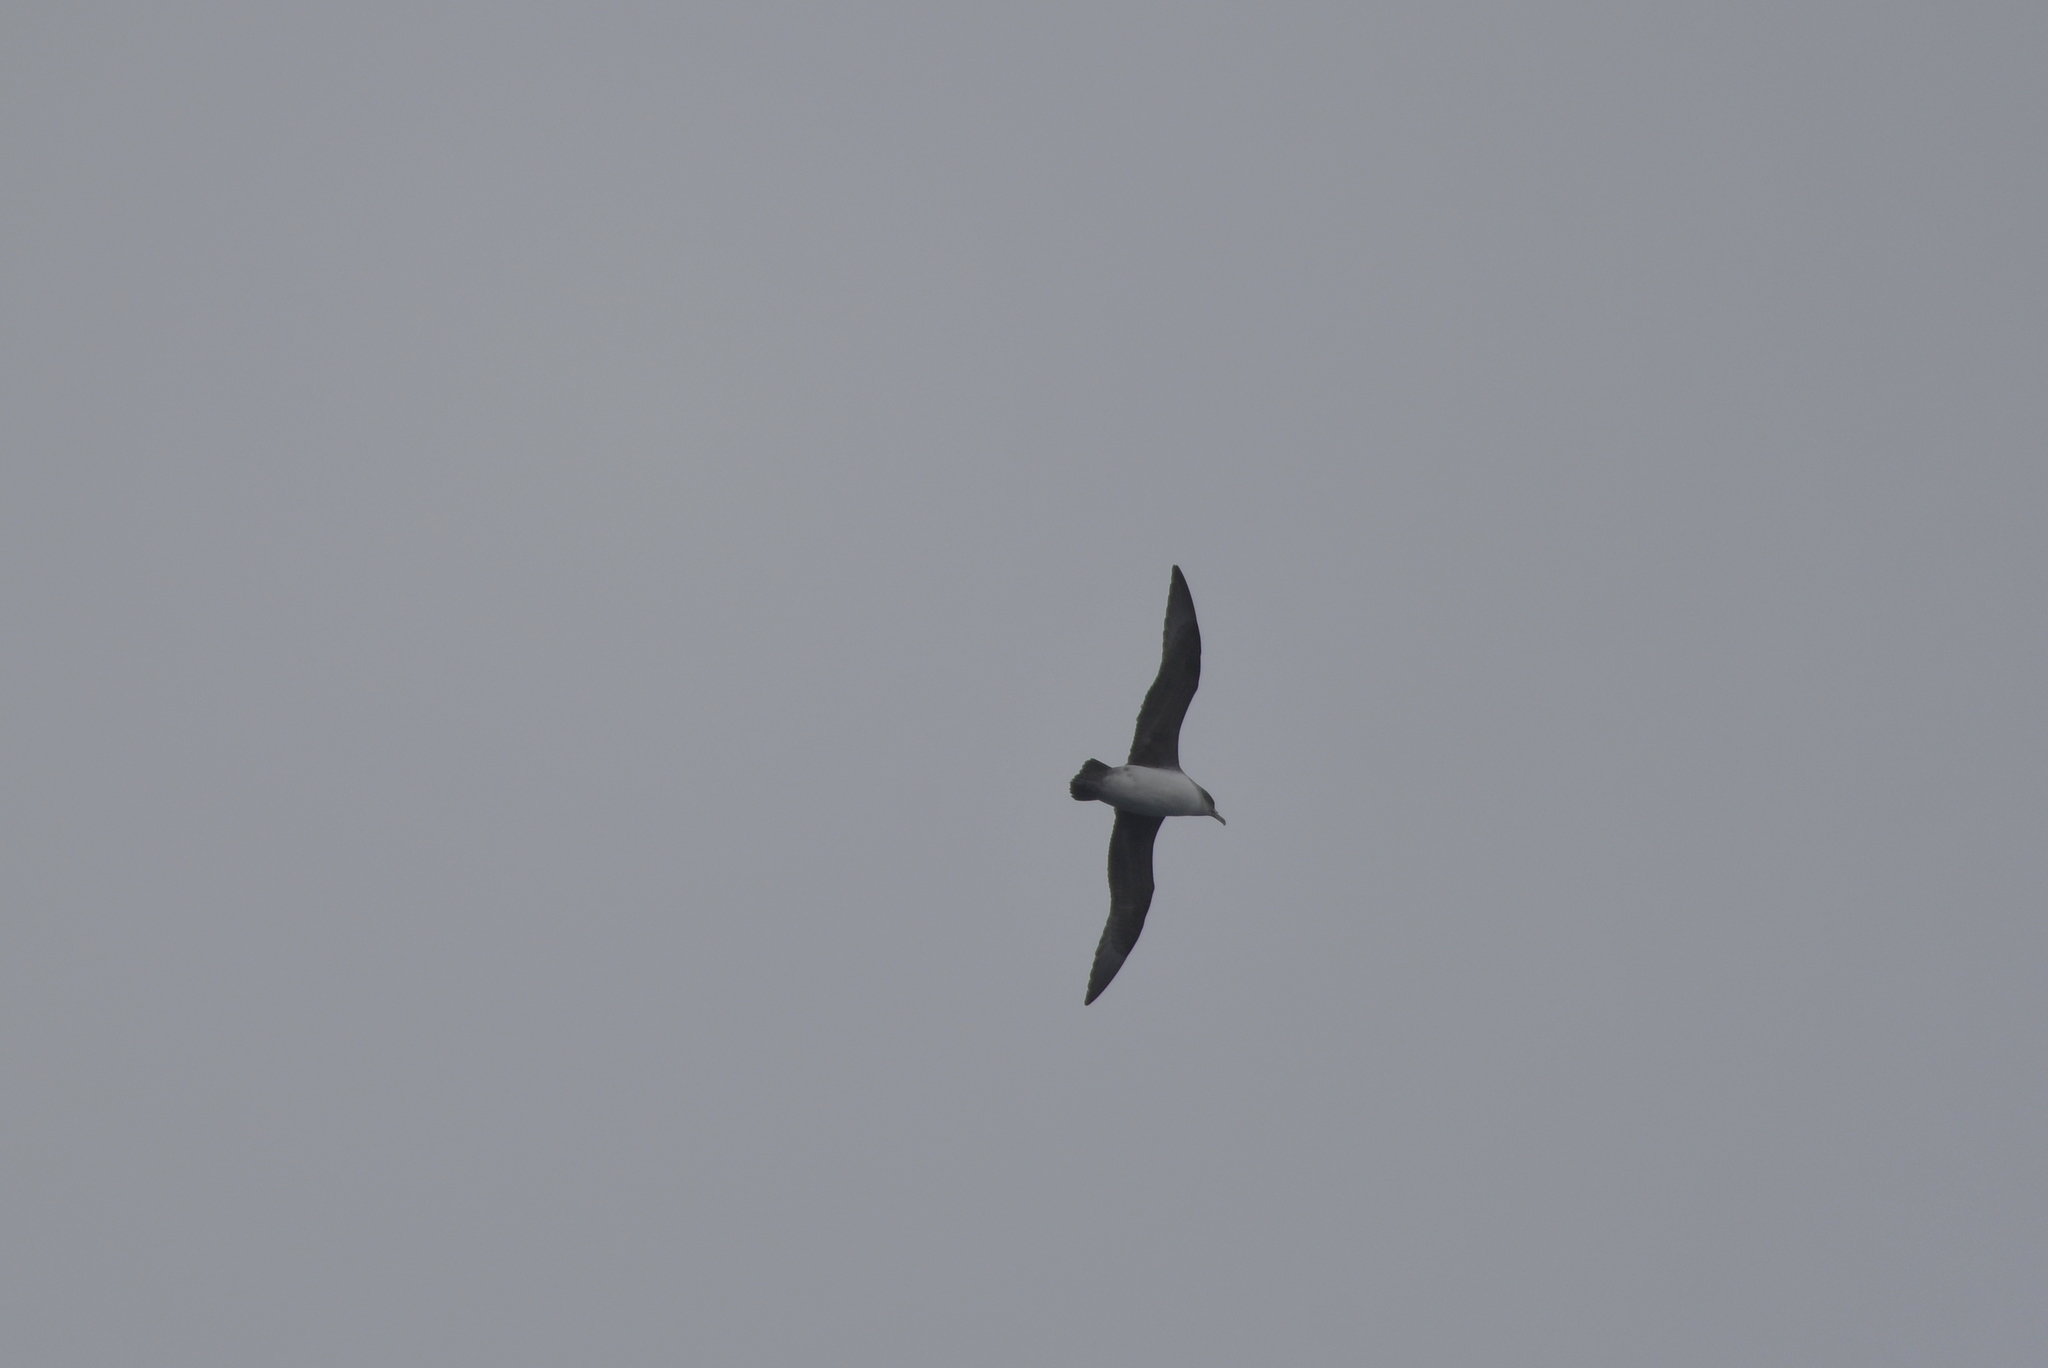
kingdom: Animalia
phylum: Chordata
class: Aves
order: Procellariiformes
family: Procellariidae
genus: Procellaria
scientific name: Procellaria cinerea
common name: Grey petrel
